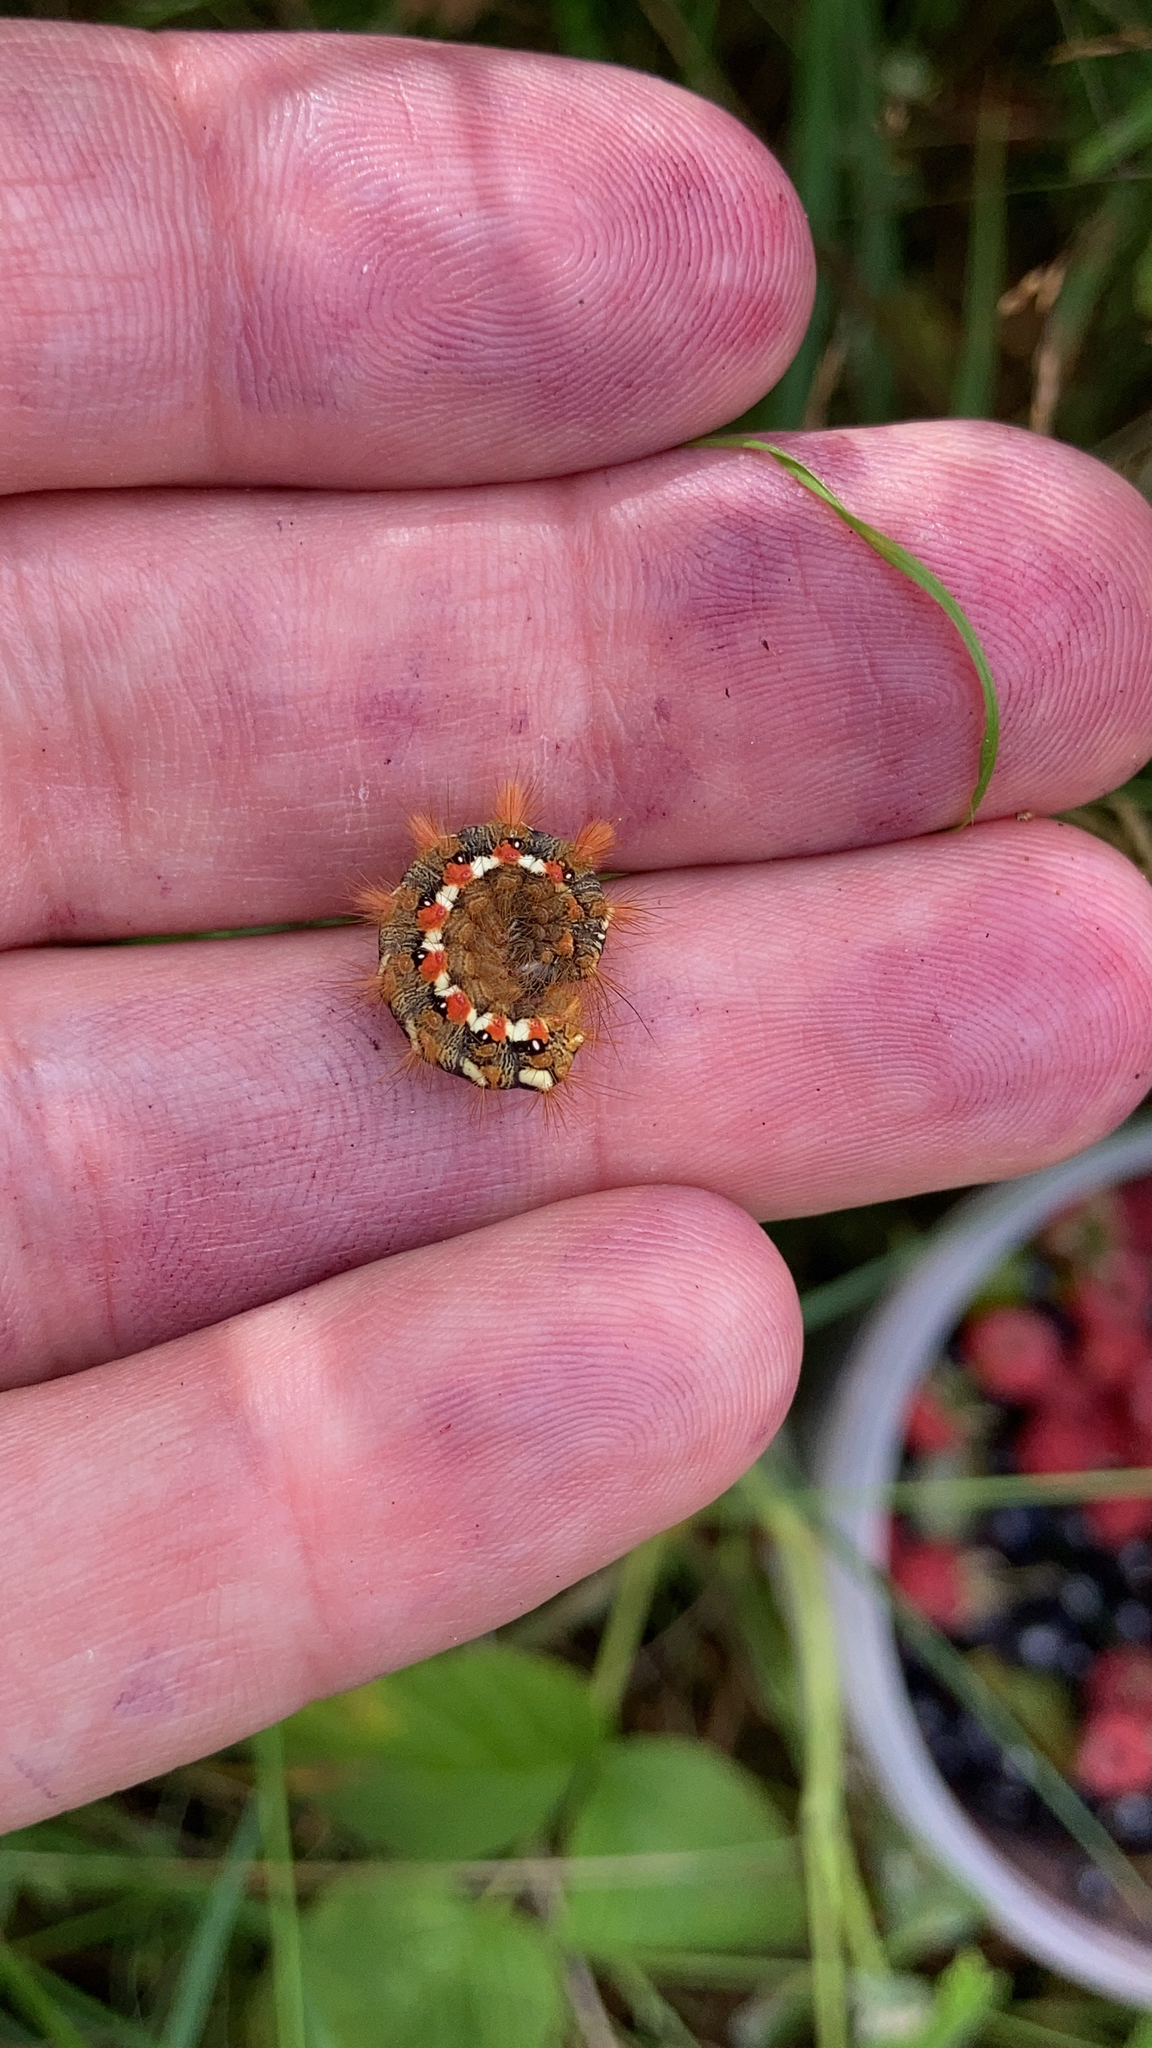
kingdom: Animalia
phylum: Arthropoda
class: Insecta
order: Lepidoptera
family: Noctuidae
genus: Acronicta
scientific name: Acronicta rumicis
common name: Knot grass
